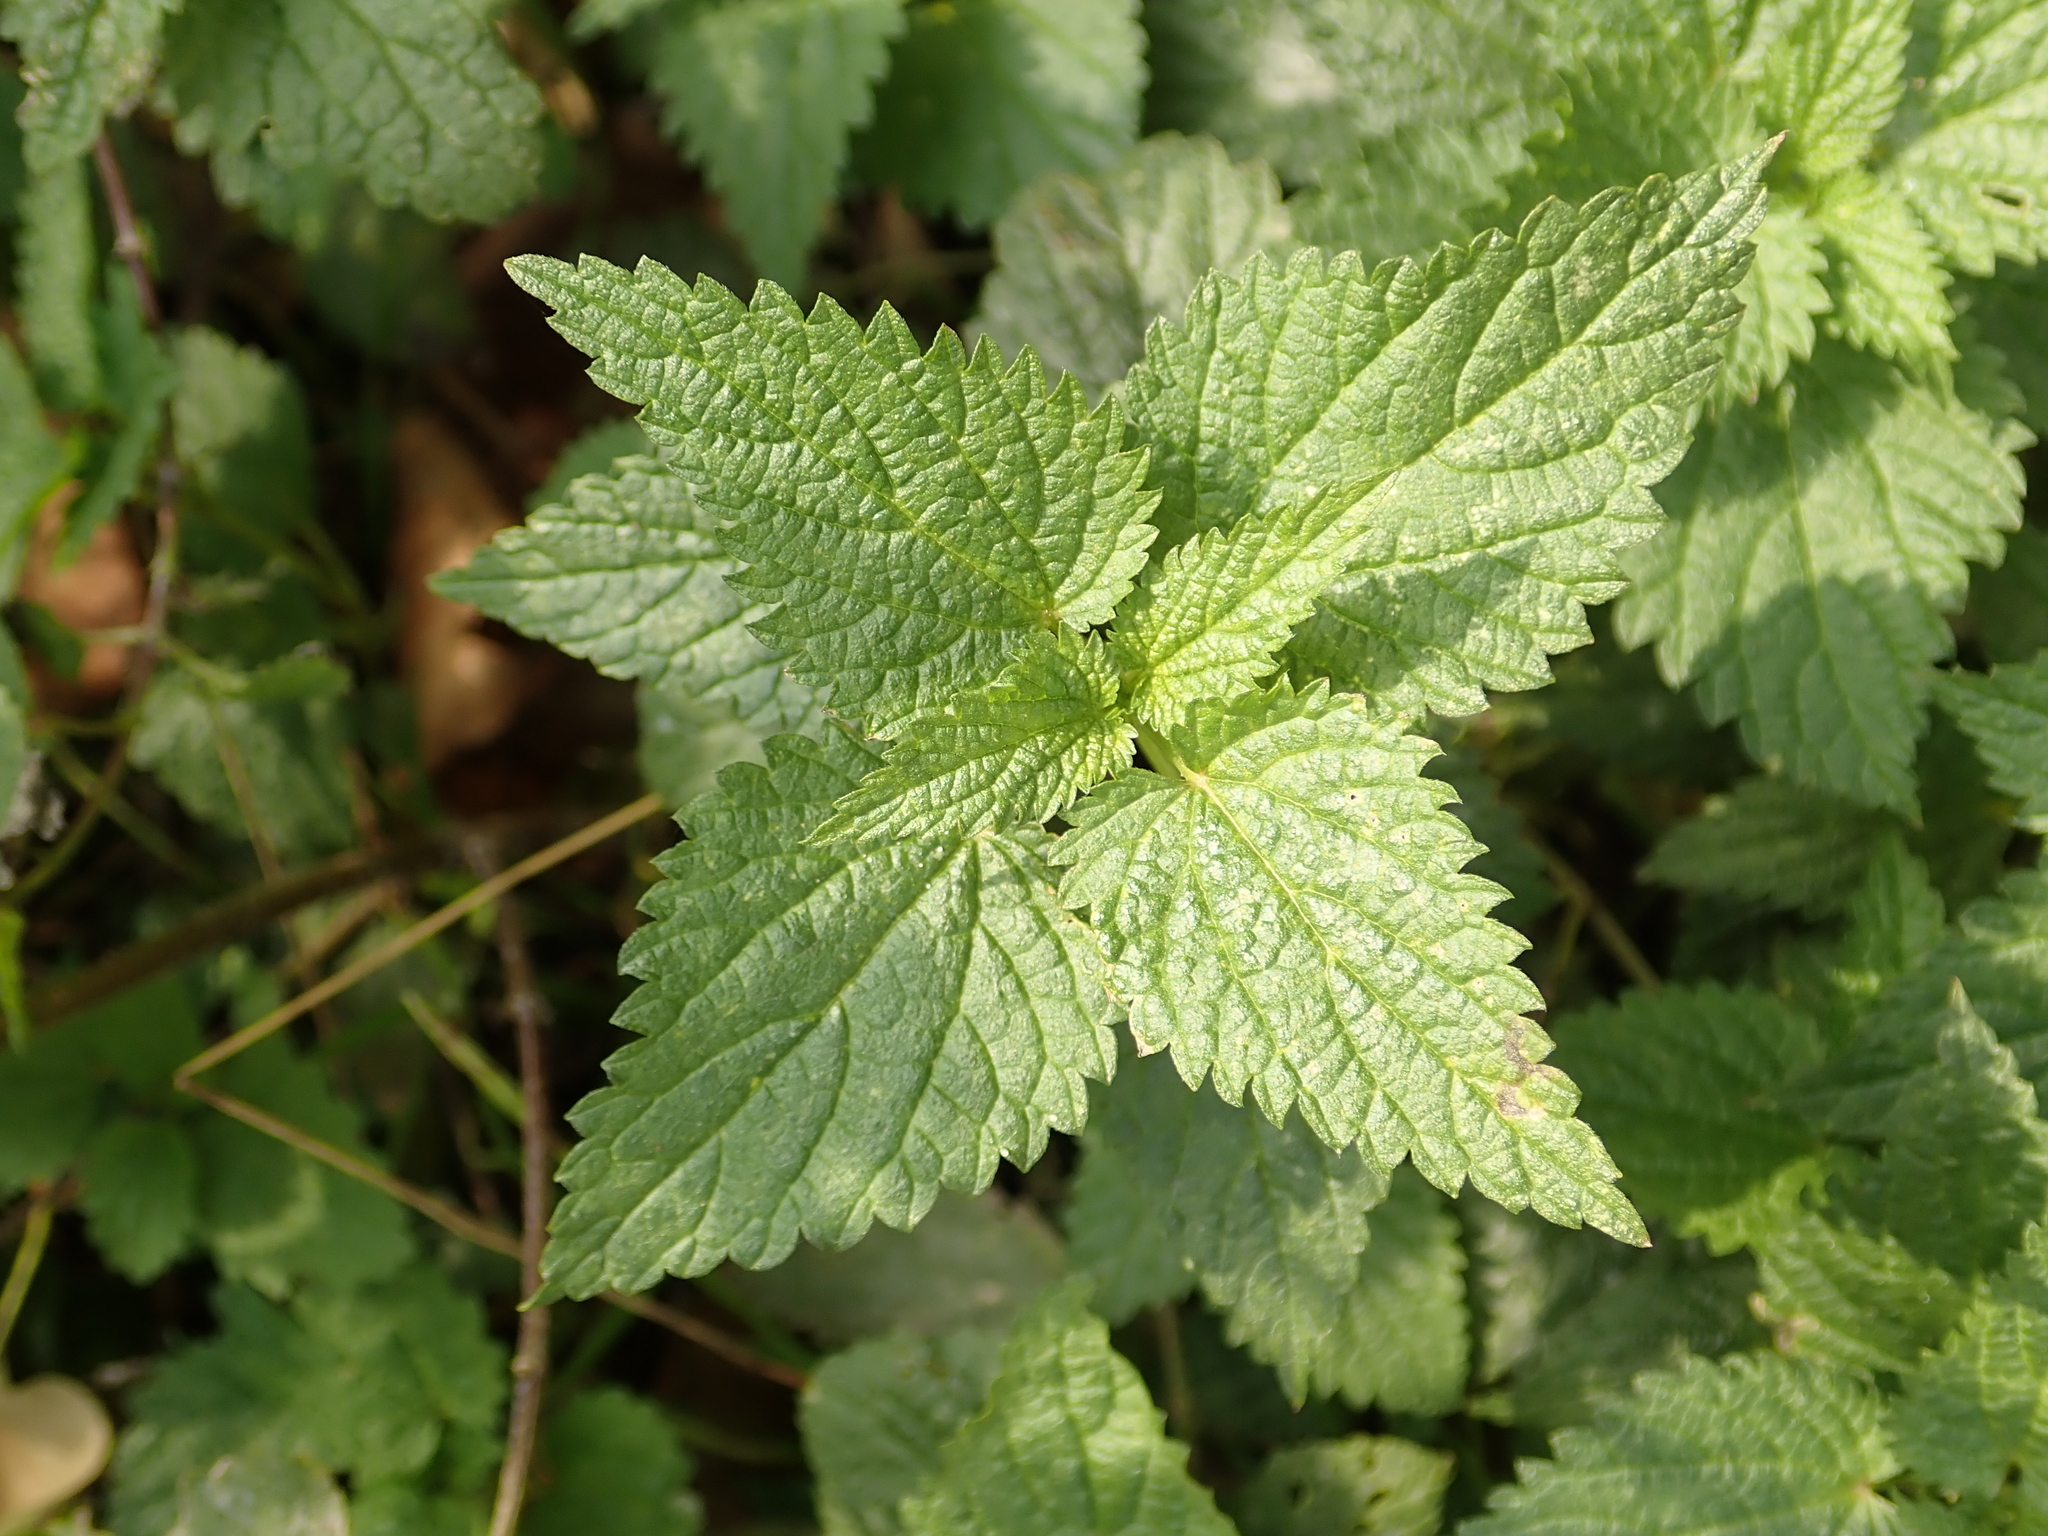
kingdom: Plantae
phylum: Tracheophyta
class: Magnoliopsida
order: Rosales
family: Urticaceae
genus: Urtica
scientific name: Urtica dioica
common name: Common nettle
